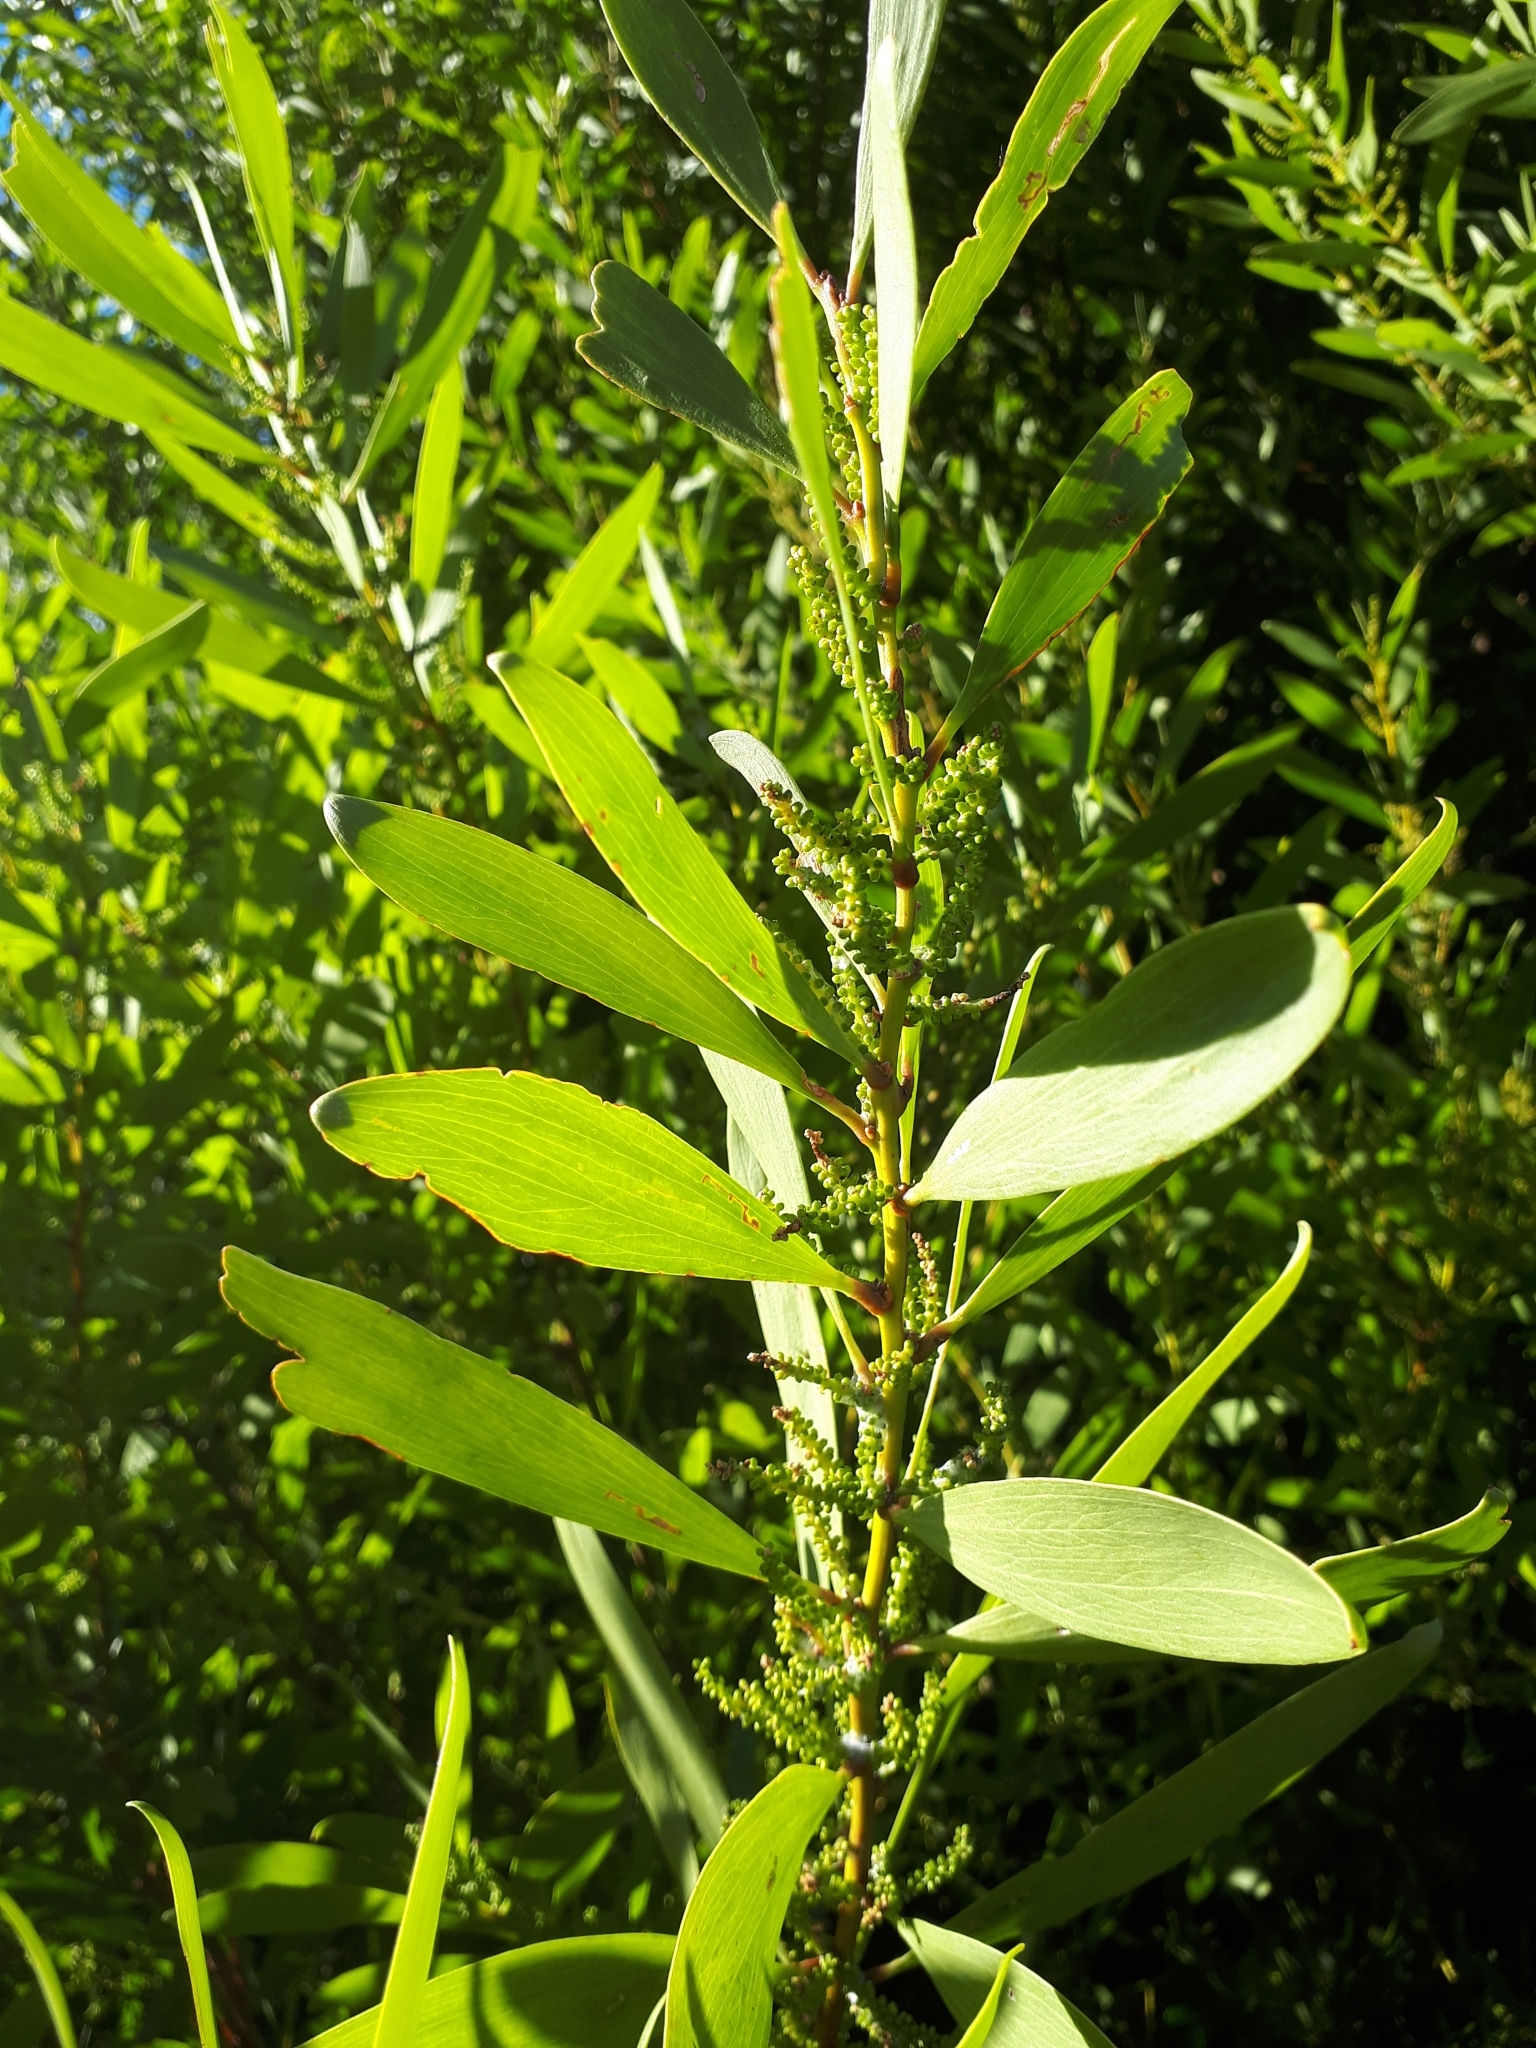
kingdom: Plantae
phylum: Tracheophyta
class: Magnoliopsida
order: Fabales
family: Fabaceae
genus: Acacia
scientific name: Acacia longifolia
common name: Sydney golden wattle
